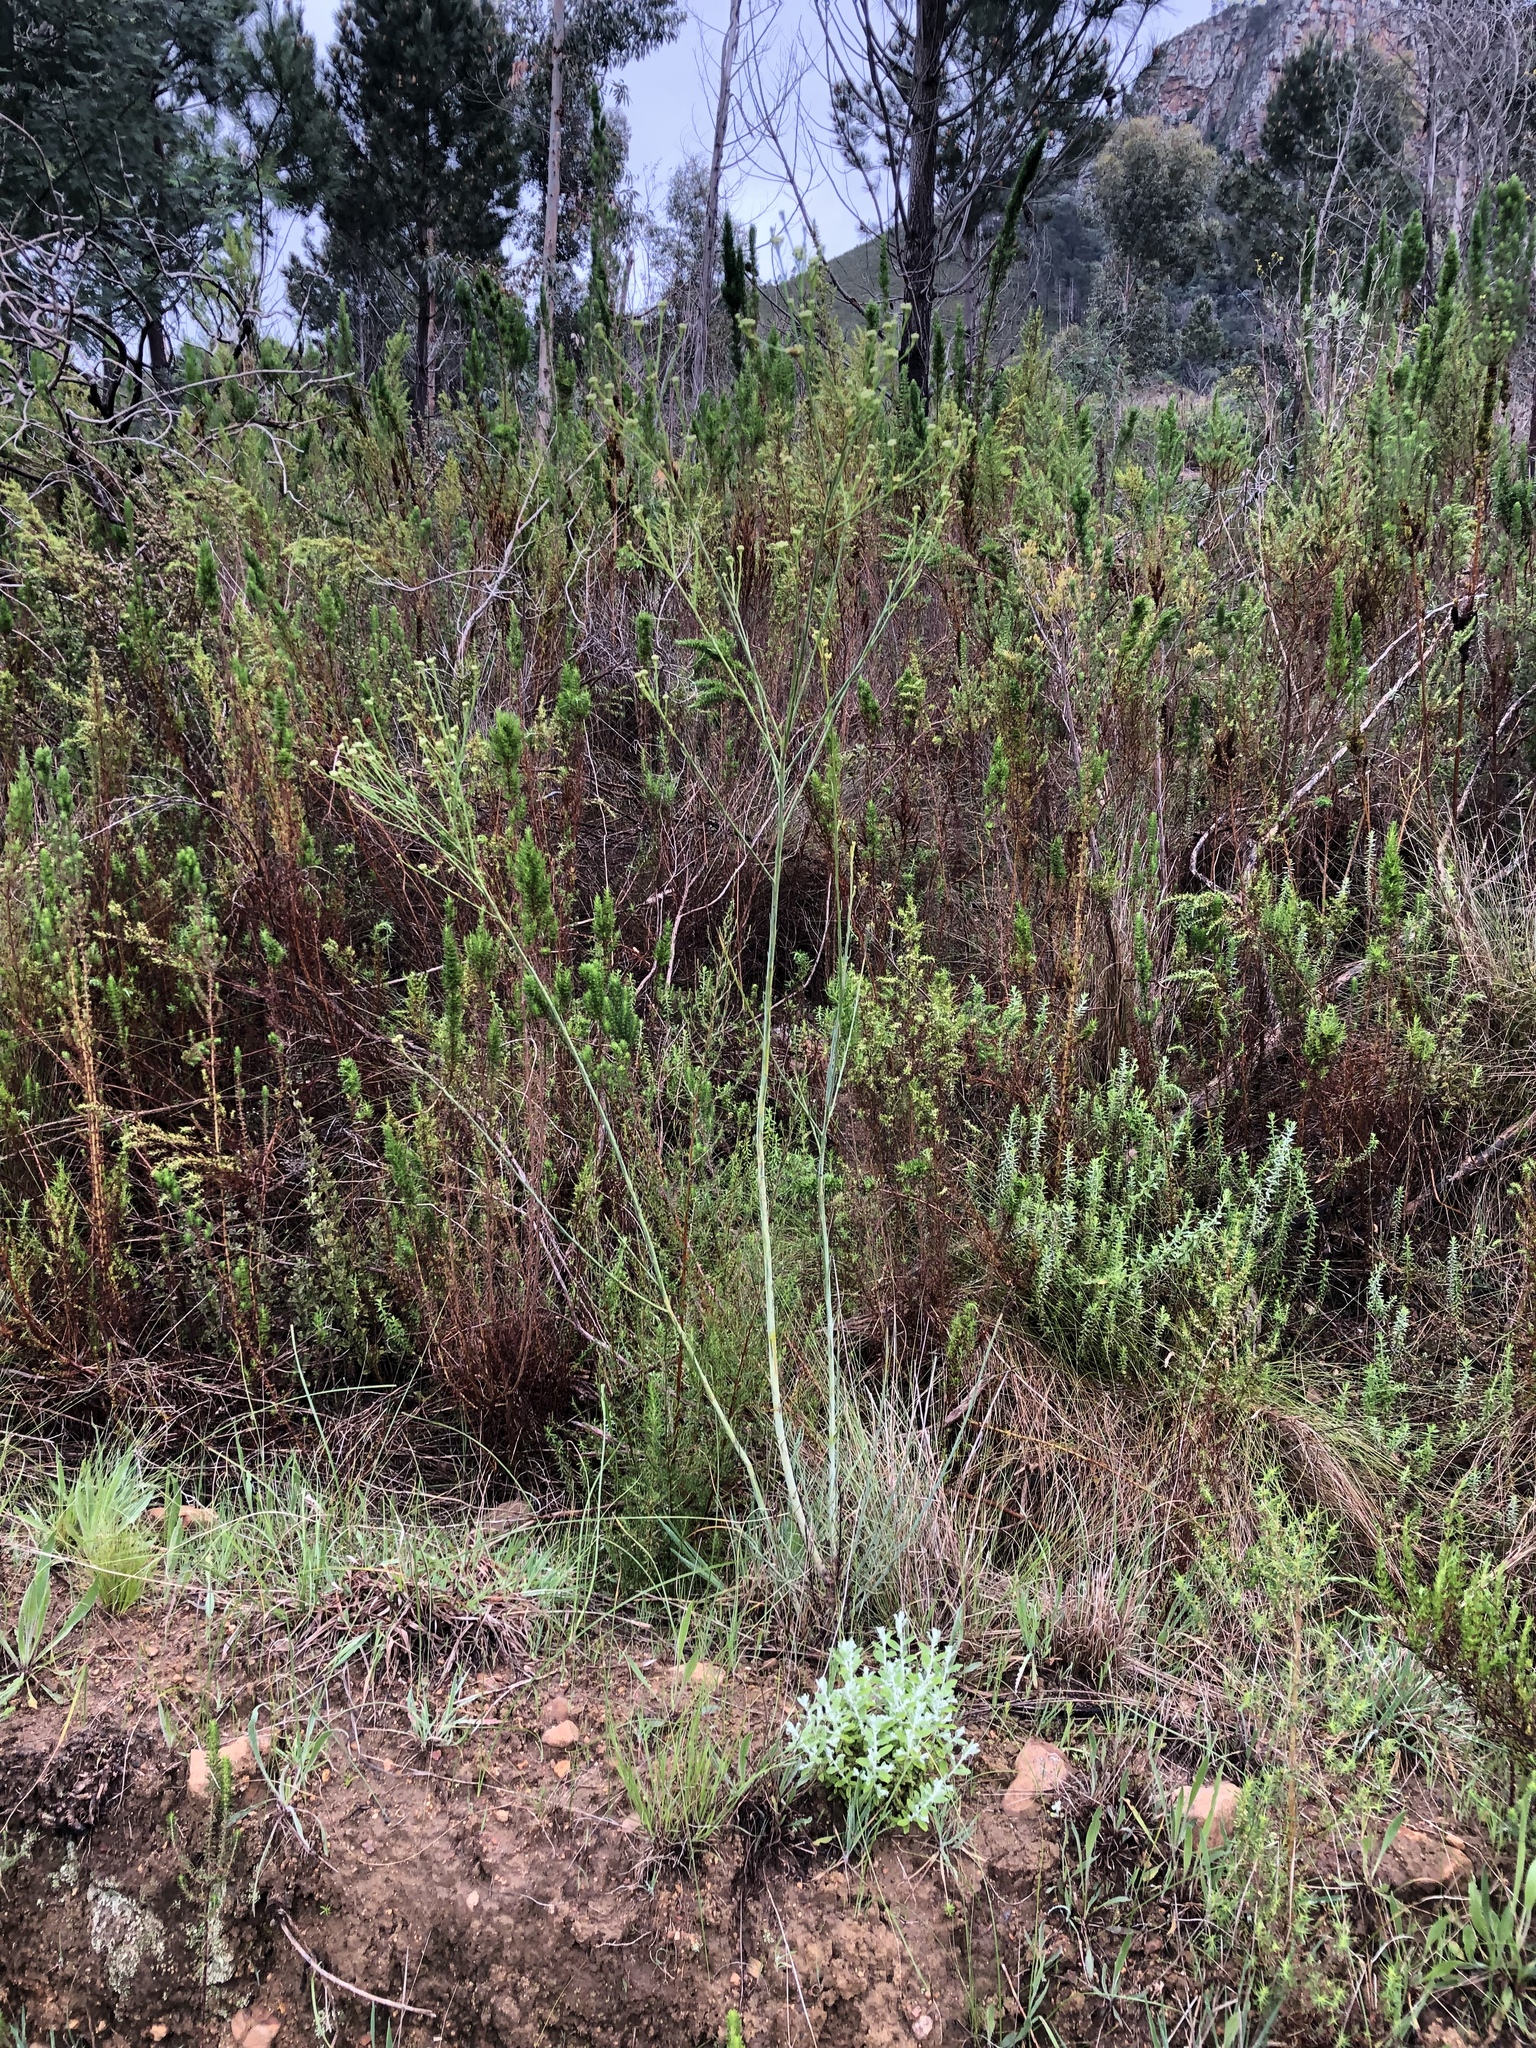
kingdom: Plantae
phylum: Tracheophyta
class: Magnoliopsida
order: Santalales
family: Thesiaceae
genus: Thesium
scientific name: Thesium virgatum
